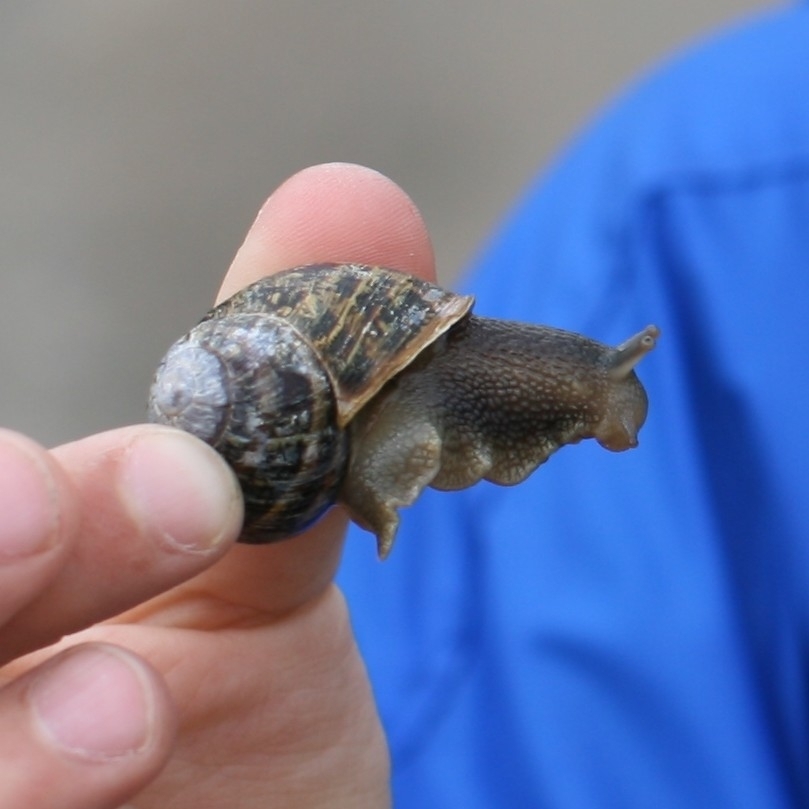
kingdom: Animalia
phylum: Mollusca
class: Gastropoda
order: Stylommatophora
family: Helicidae
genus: Cornu
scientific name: Cornu aspersum
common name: Brown garden snail
